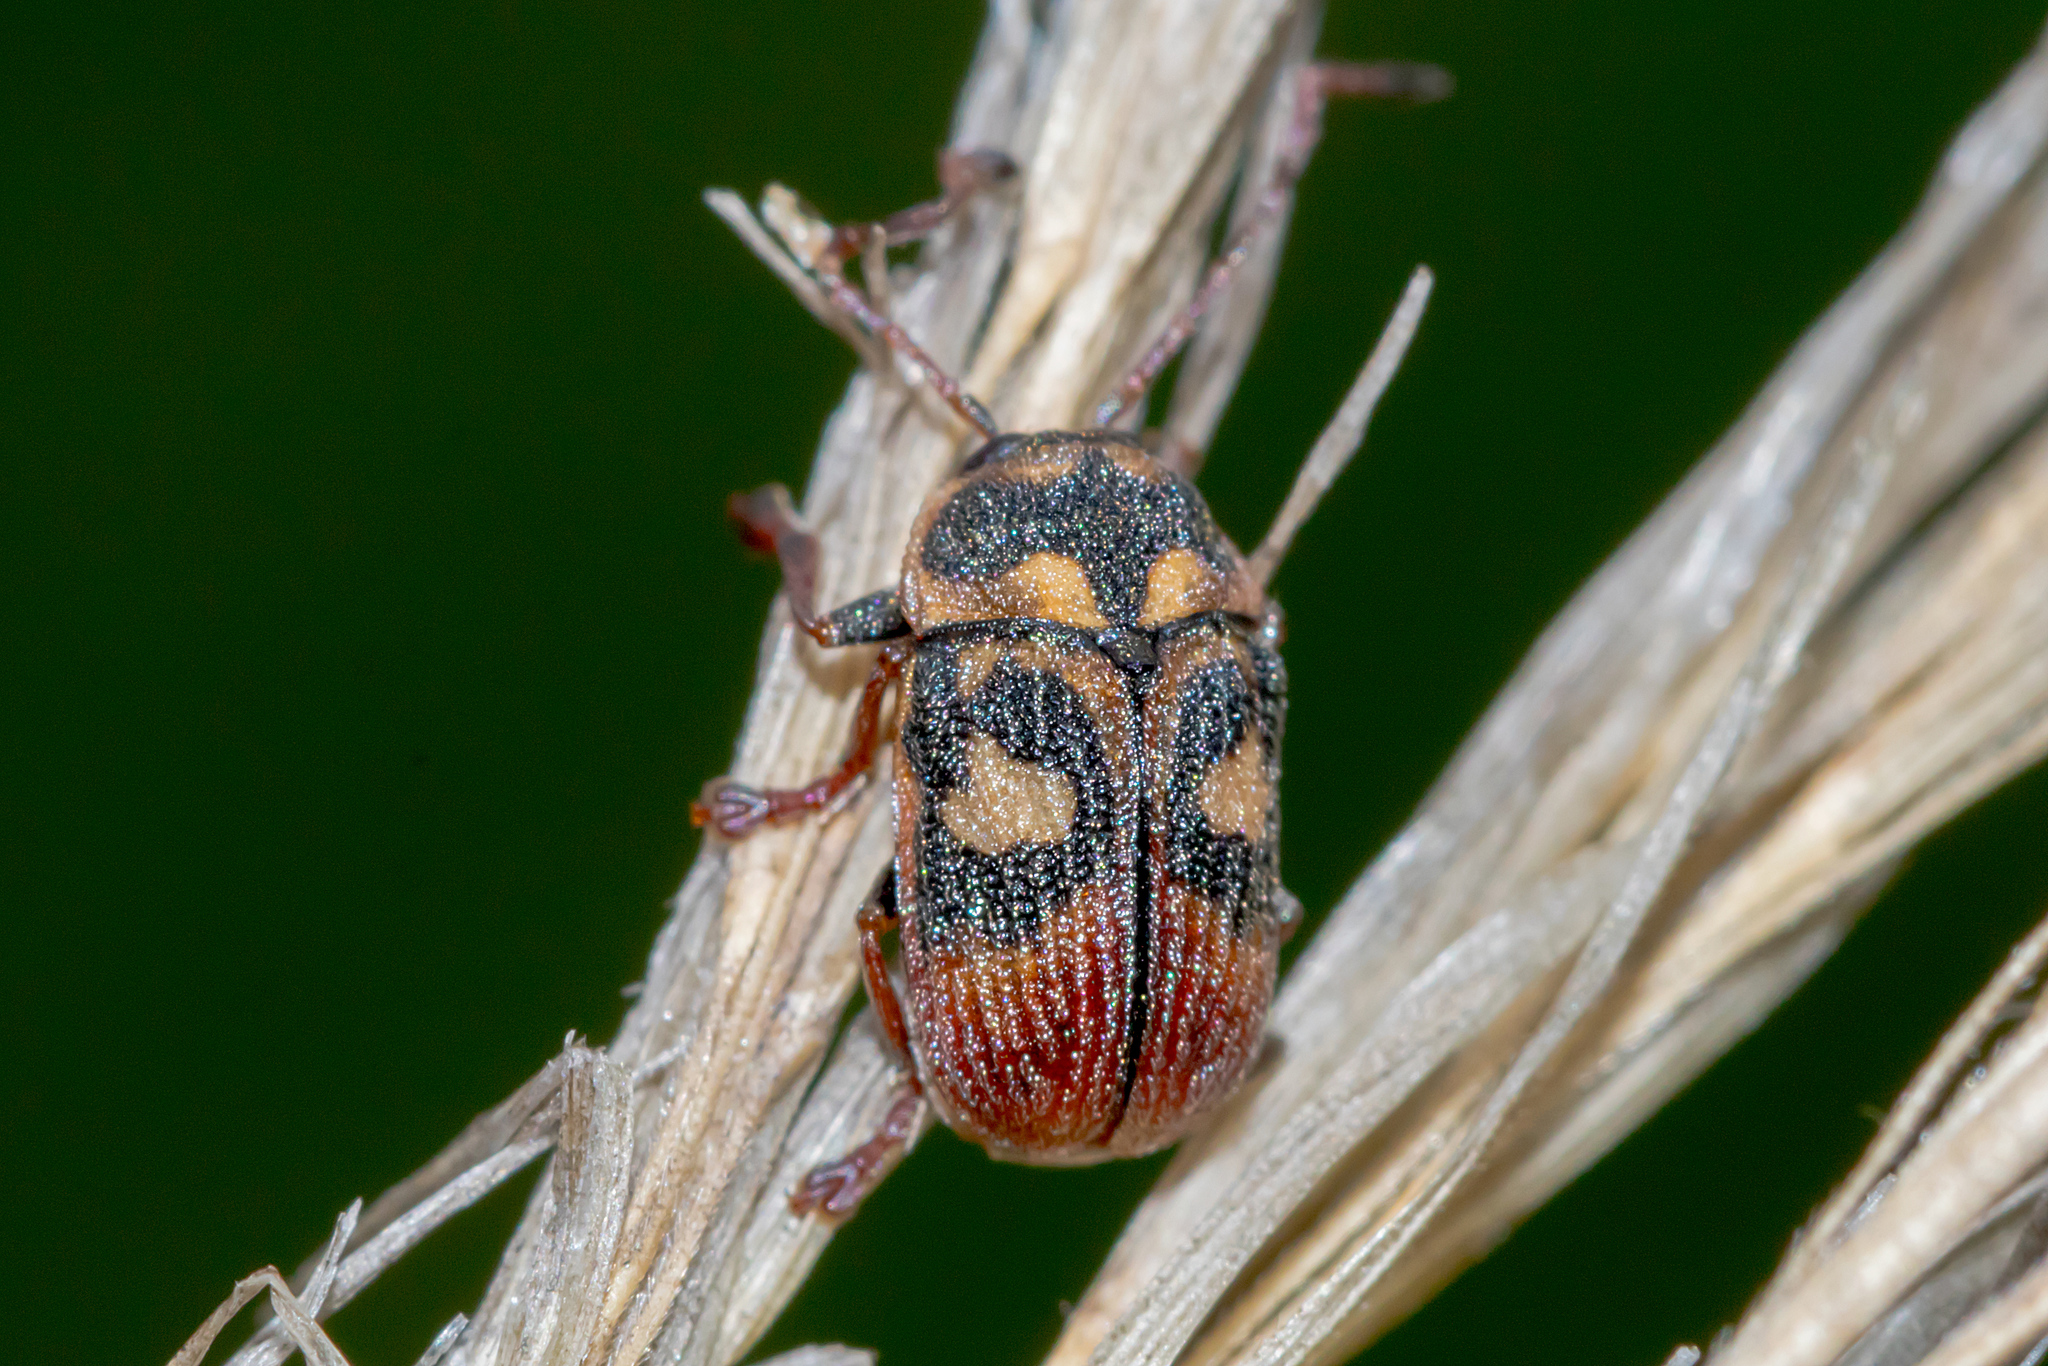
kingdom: Animalia
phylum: Arthropoda
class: Insecta
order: Coleoptera
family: Chrysomelidae
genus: Cadmus
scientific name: Cadmus
